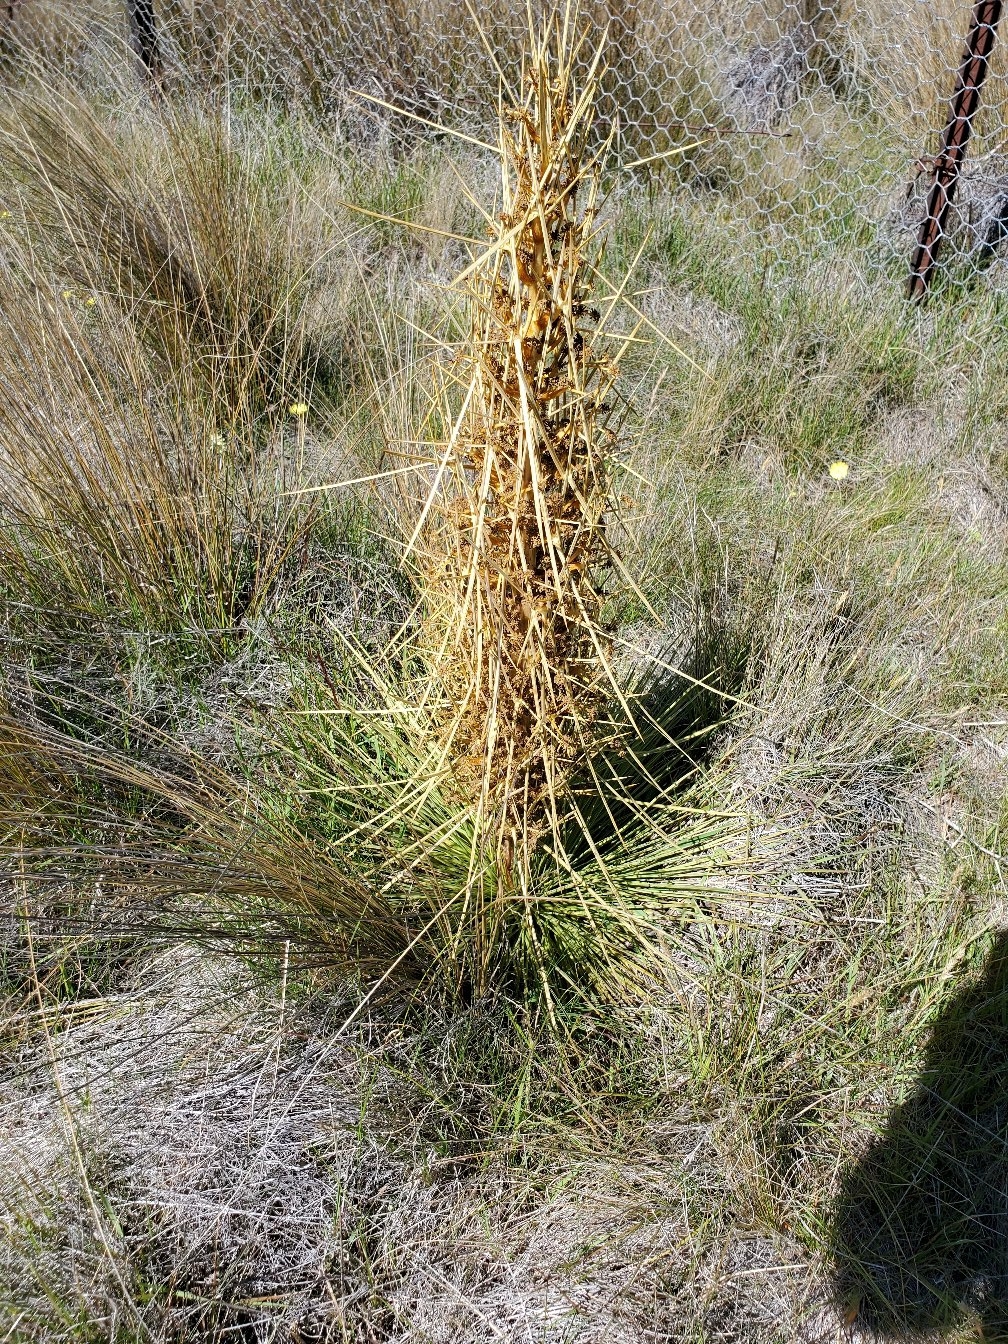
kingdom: Plantae
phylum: Tracheophyta
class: Magnoliopsida
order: Apiales
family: Apiaceae
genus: Aciphylla
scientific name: Aciphylla subflabellata
